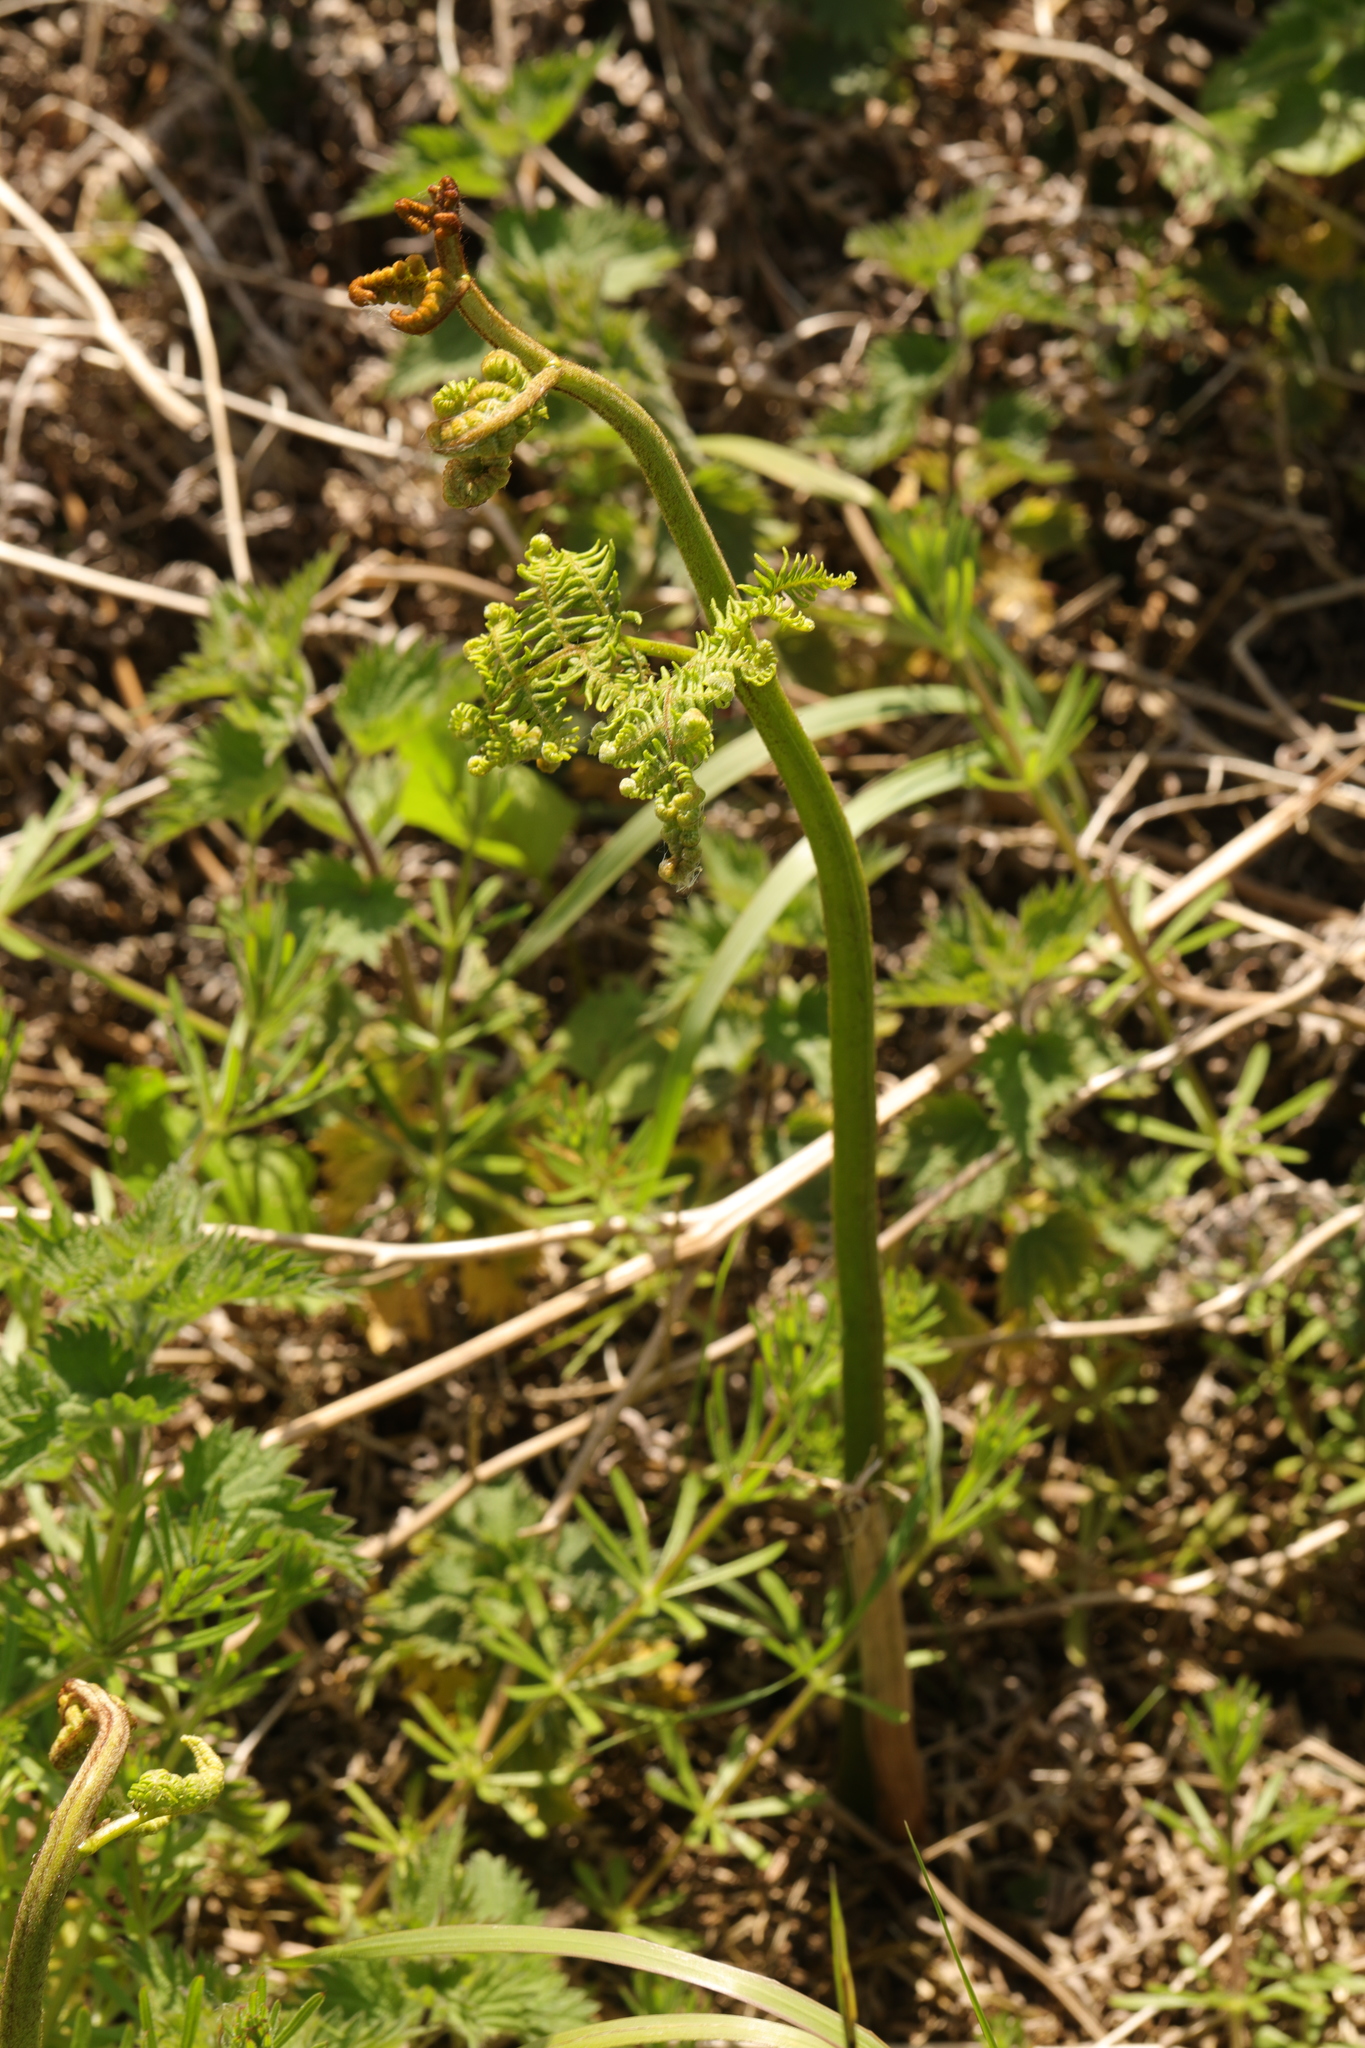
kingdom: Plantae
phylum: Tracheophyta
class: Polypodiopsida
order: Polypodiales
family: Dennstaedtiaceae
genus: Pteridium
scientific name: Pteridium aquilinum
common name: Bracken
